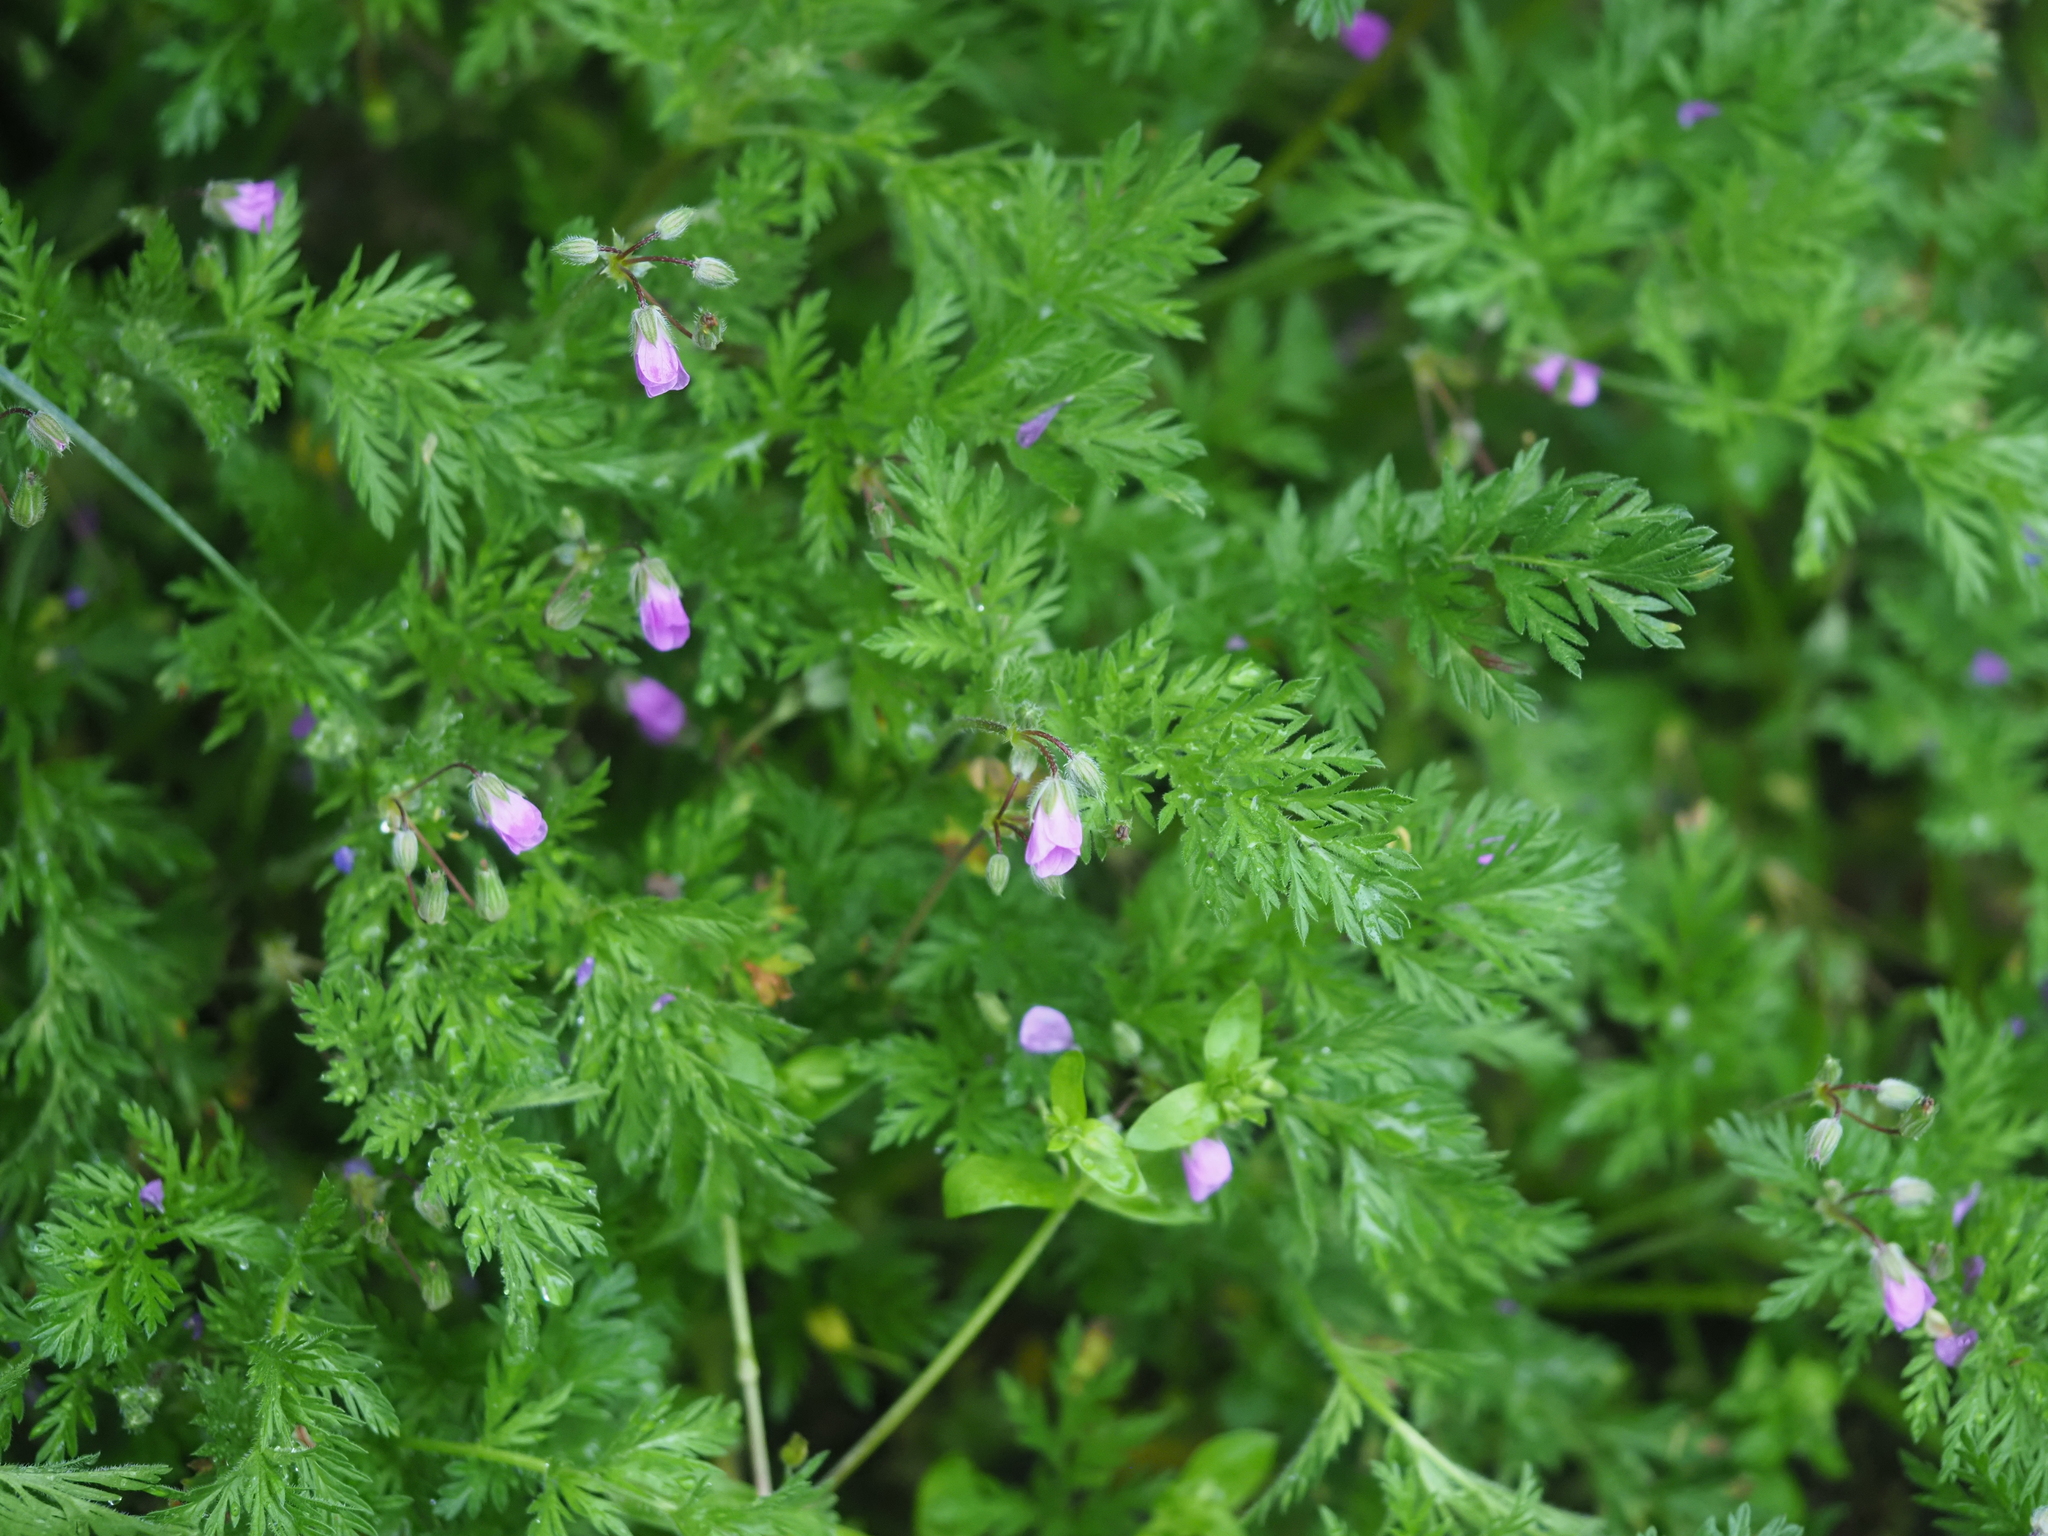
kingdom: Plantae
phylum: Tracheophyta
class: Magnoliopsida
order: Geraniales
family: Geraniaceae
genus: Erodium
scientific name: Erodium cicutarium
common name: Common stork's-bill
